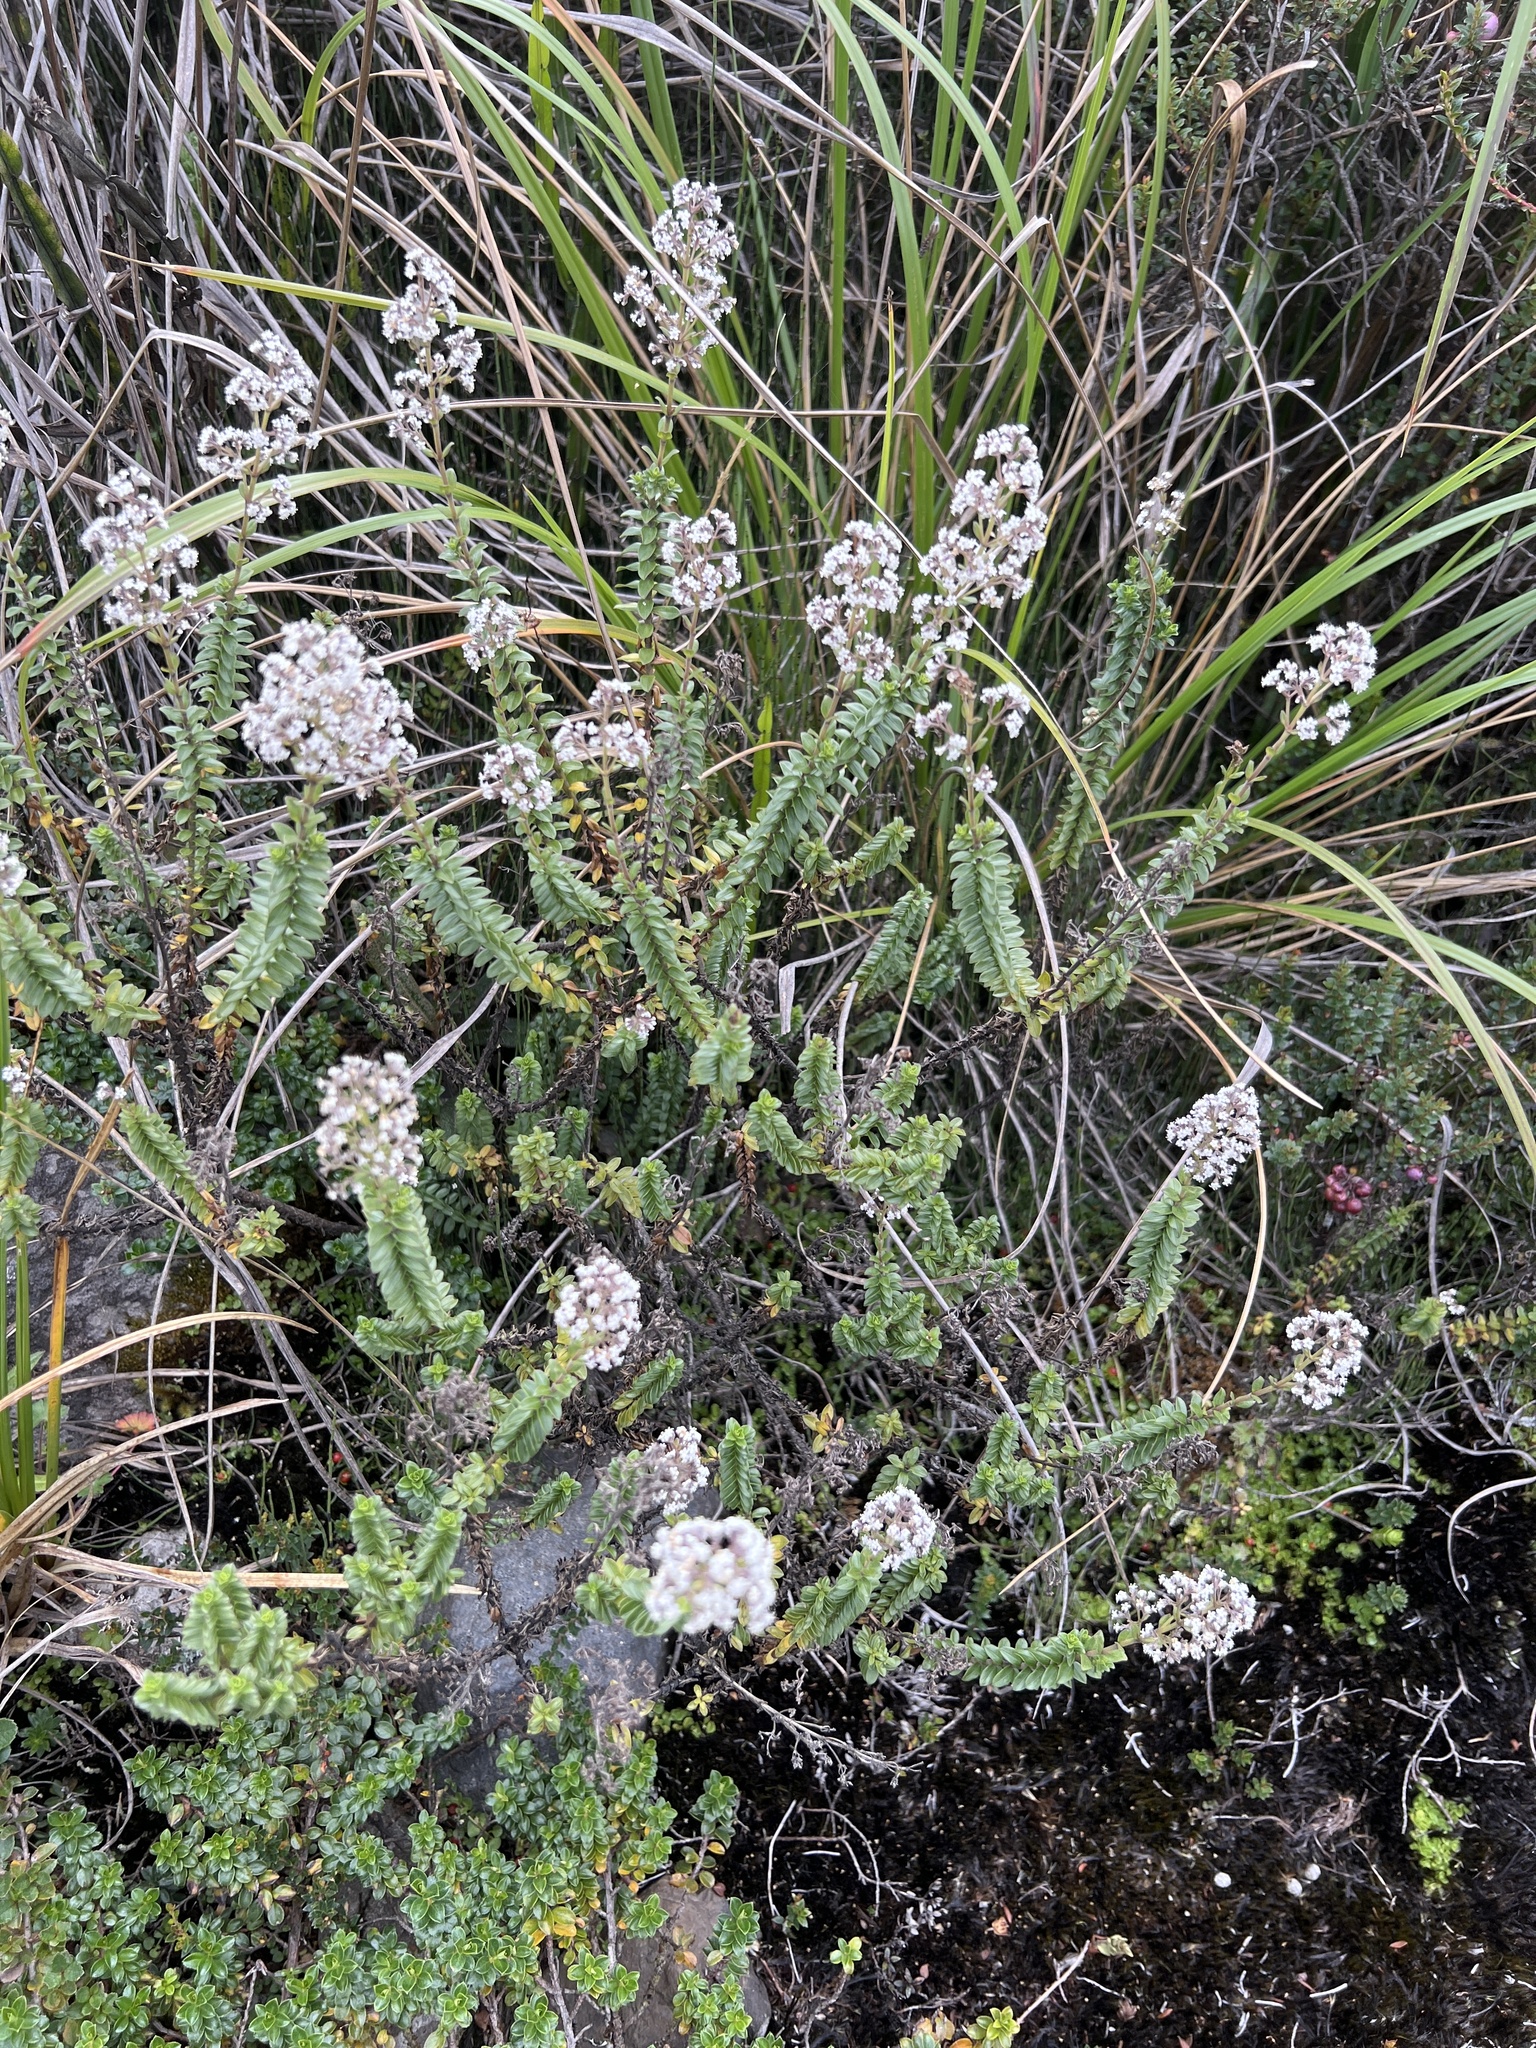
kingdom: Plantae
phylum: Tracheophyta
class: Magnoliopsida
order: Dipsacales
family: Caprifoliaceae
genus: Valeriana
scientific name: Valeriana microphylla
